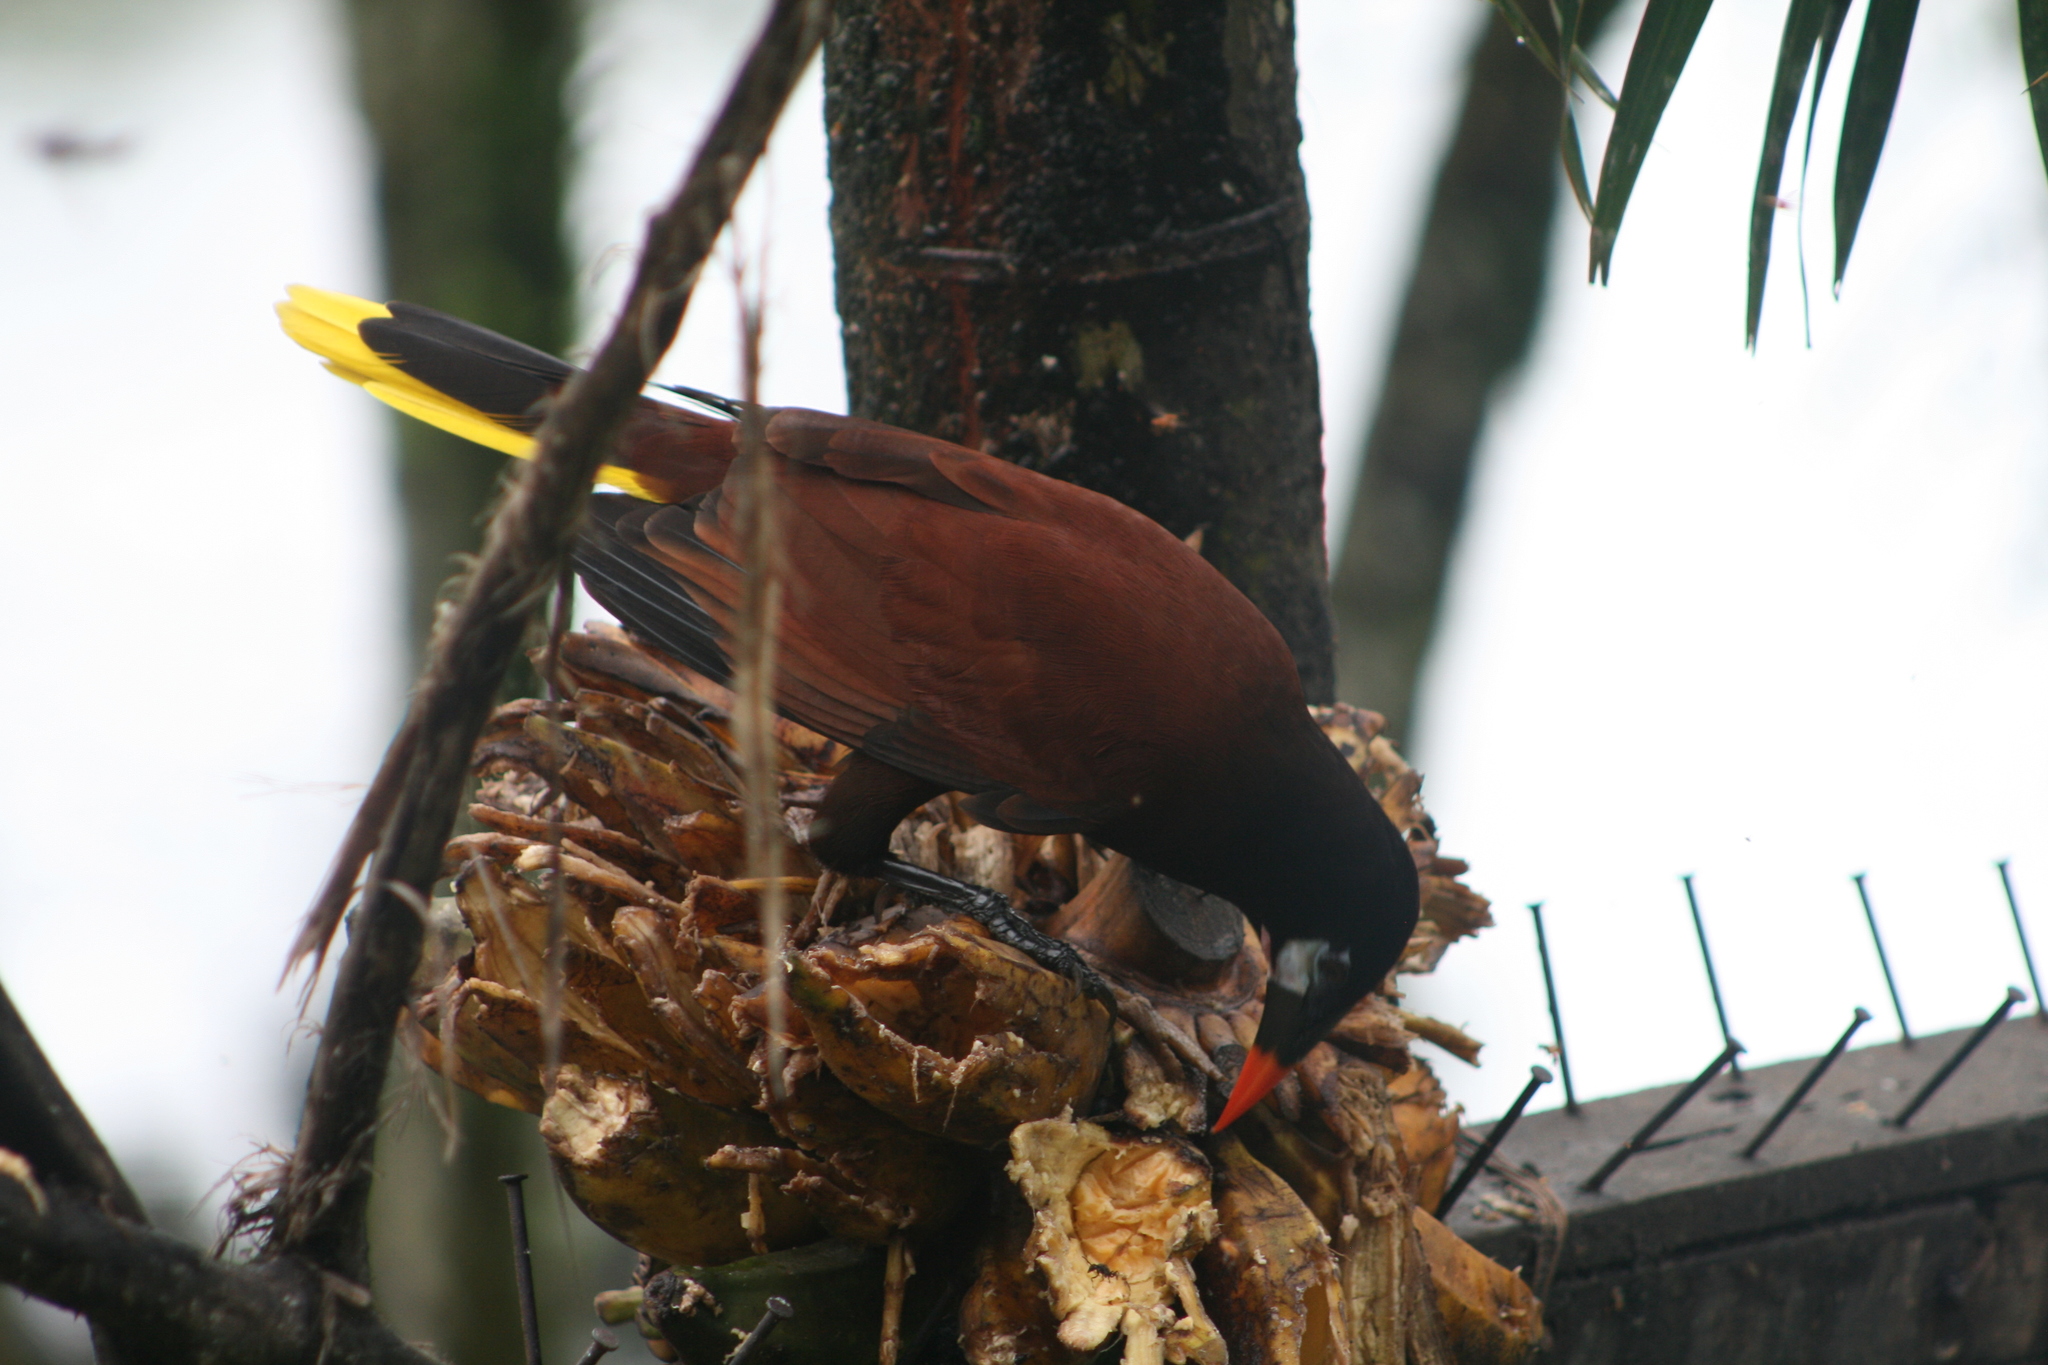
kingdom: Animalia
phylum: Chordata
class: Aves
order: Passeriformes
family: Icteridae
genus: Psarocolius
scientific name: Psarocolius montezuma
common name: Montezuma oropendola
